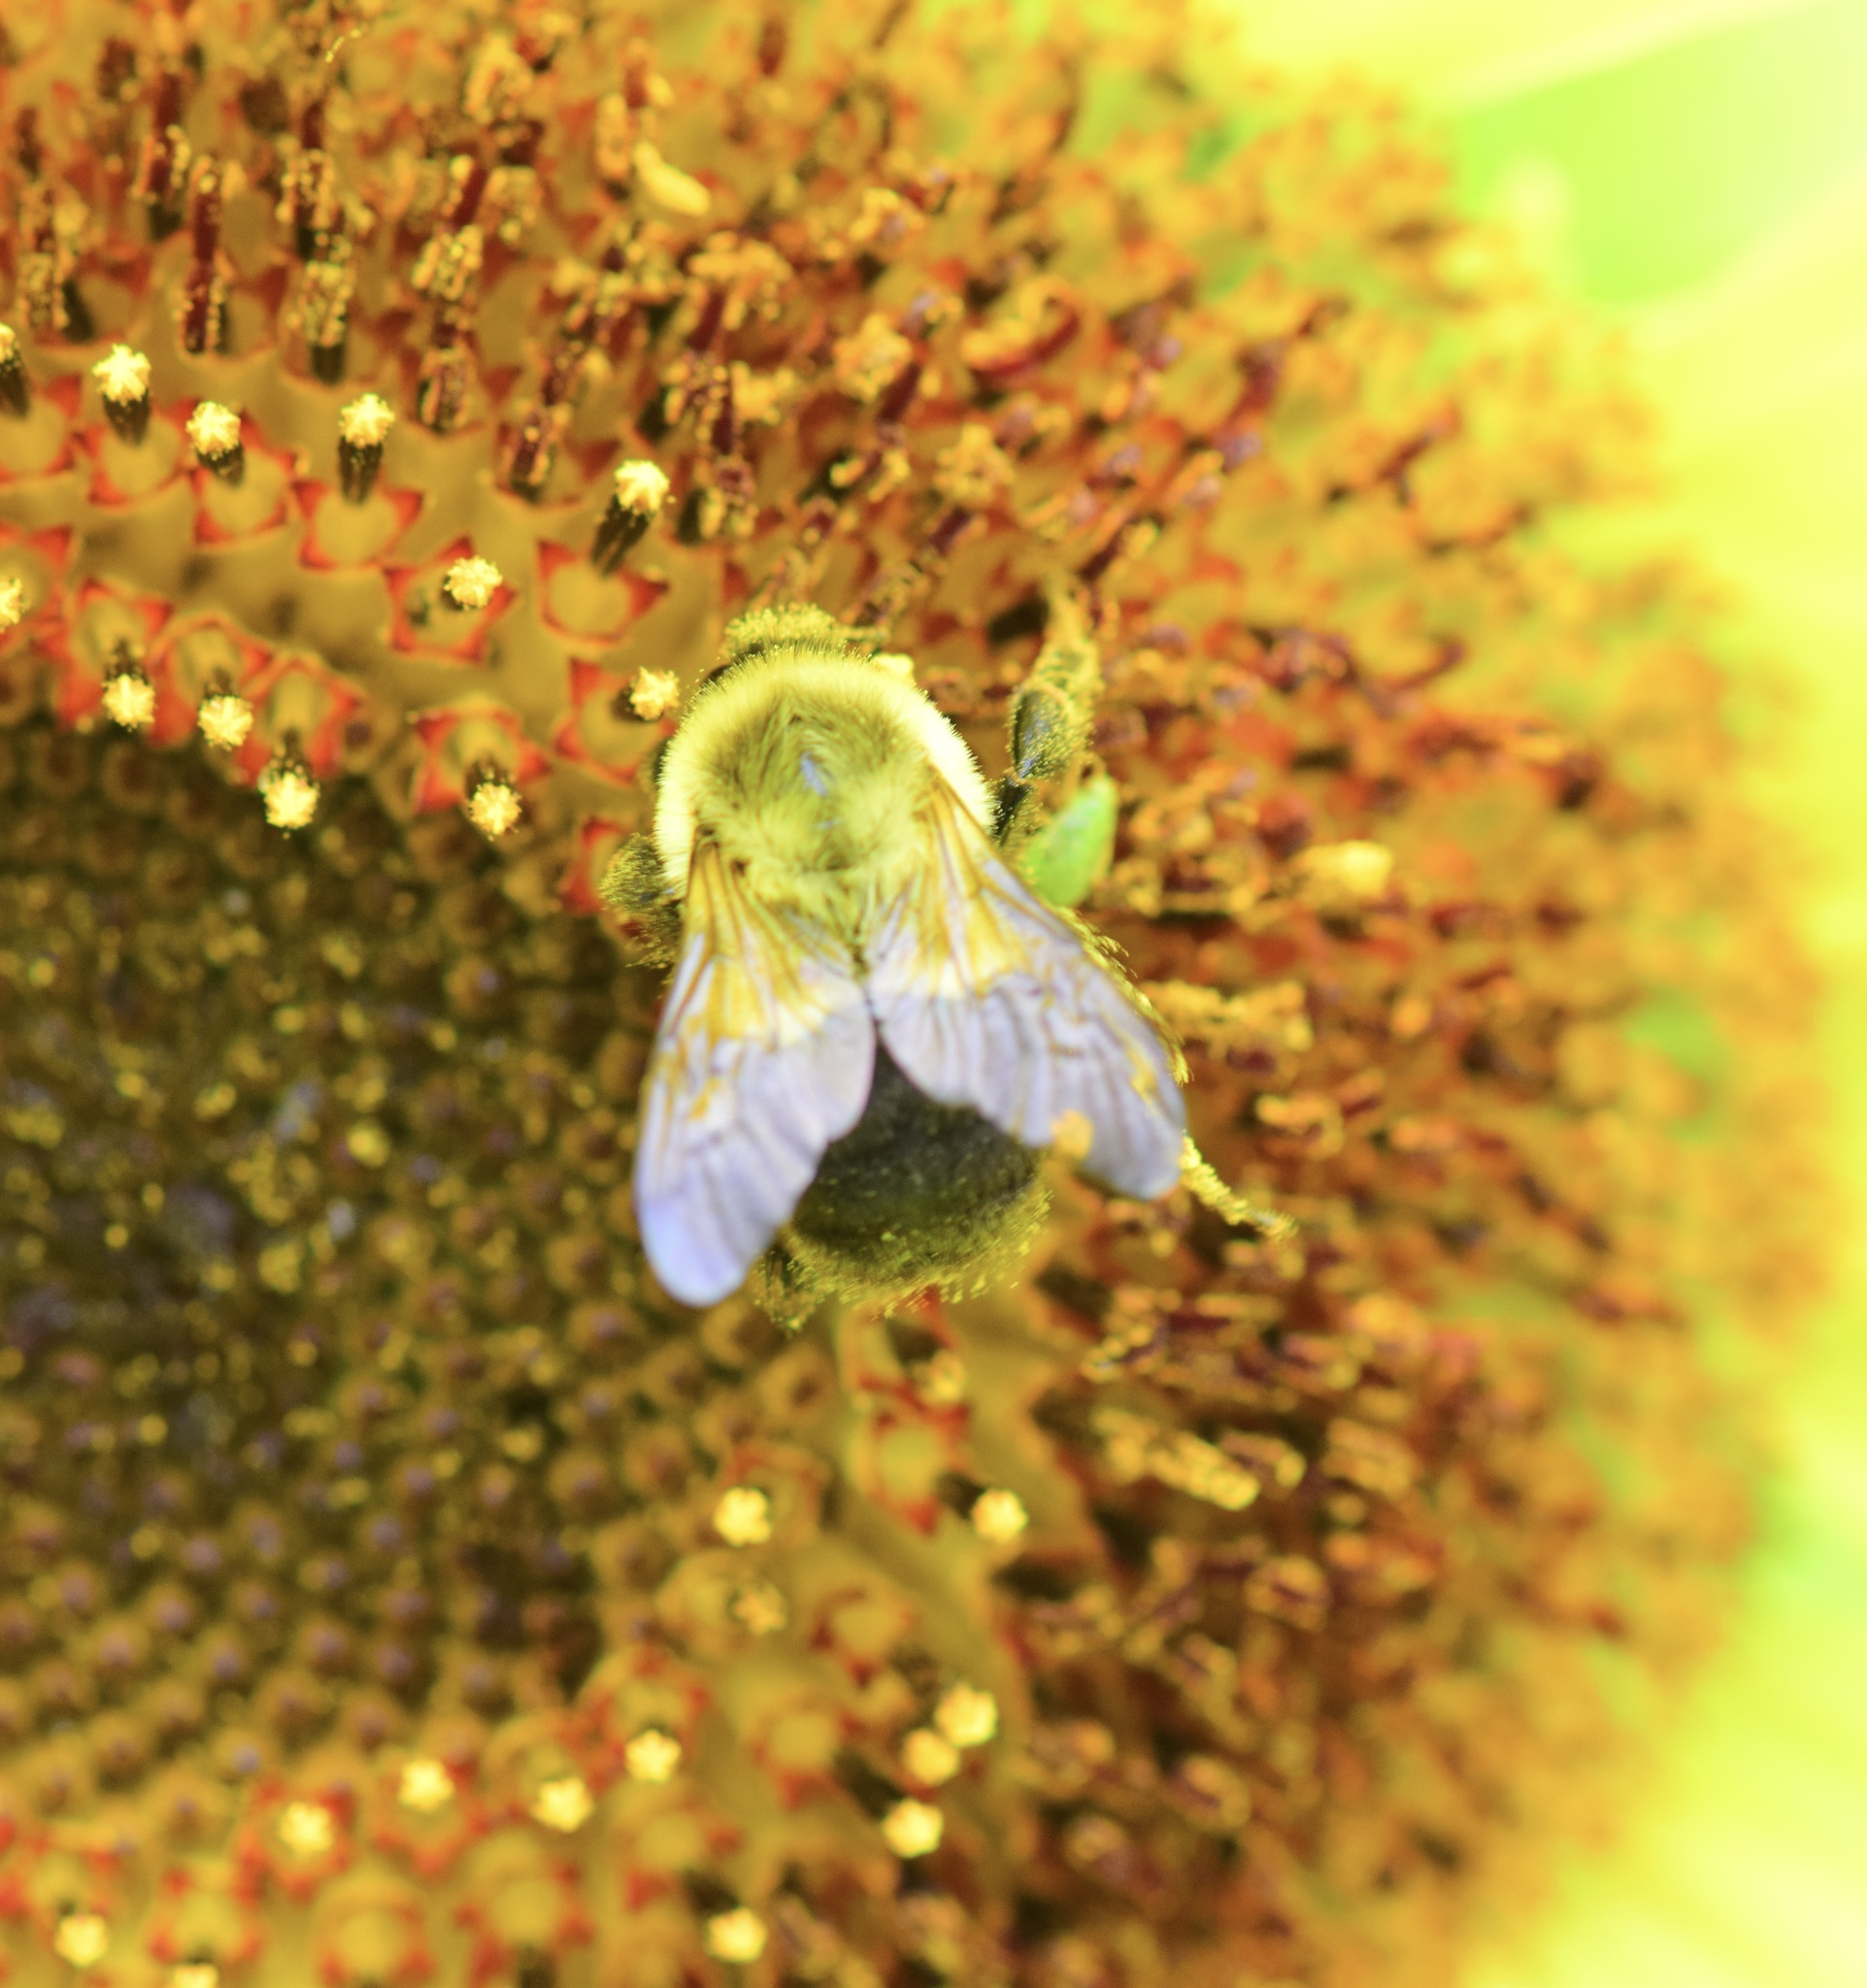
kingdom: Animalia
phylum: Arthropoda
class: Insecta
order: Hymenoptera
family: Apidae
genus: Bombus
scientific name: Bombus impatiens
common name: Common eastern bumble bee
